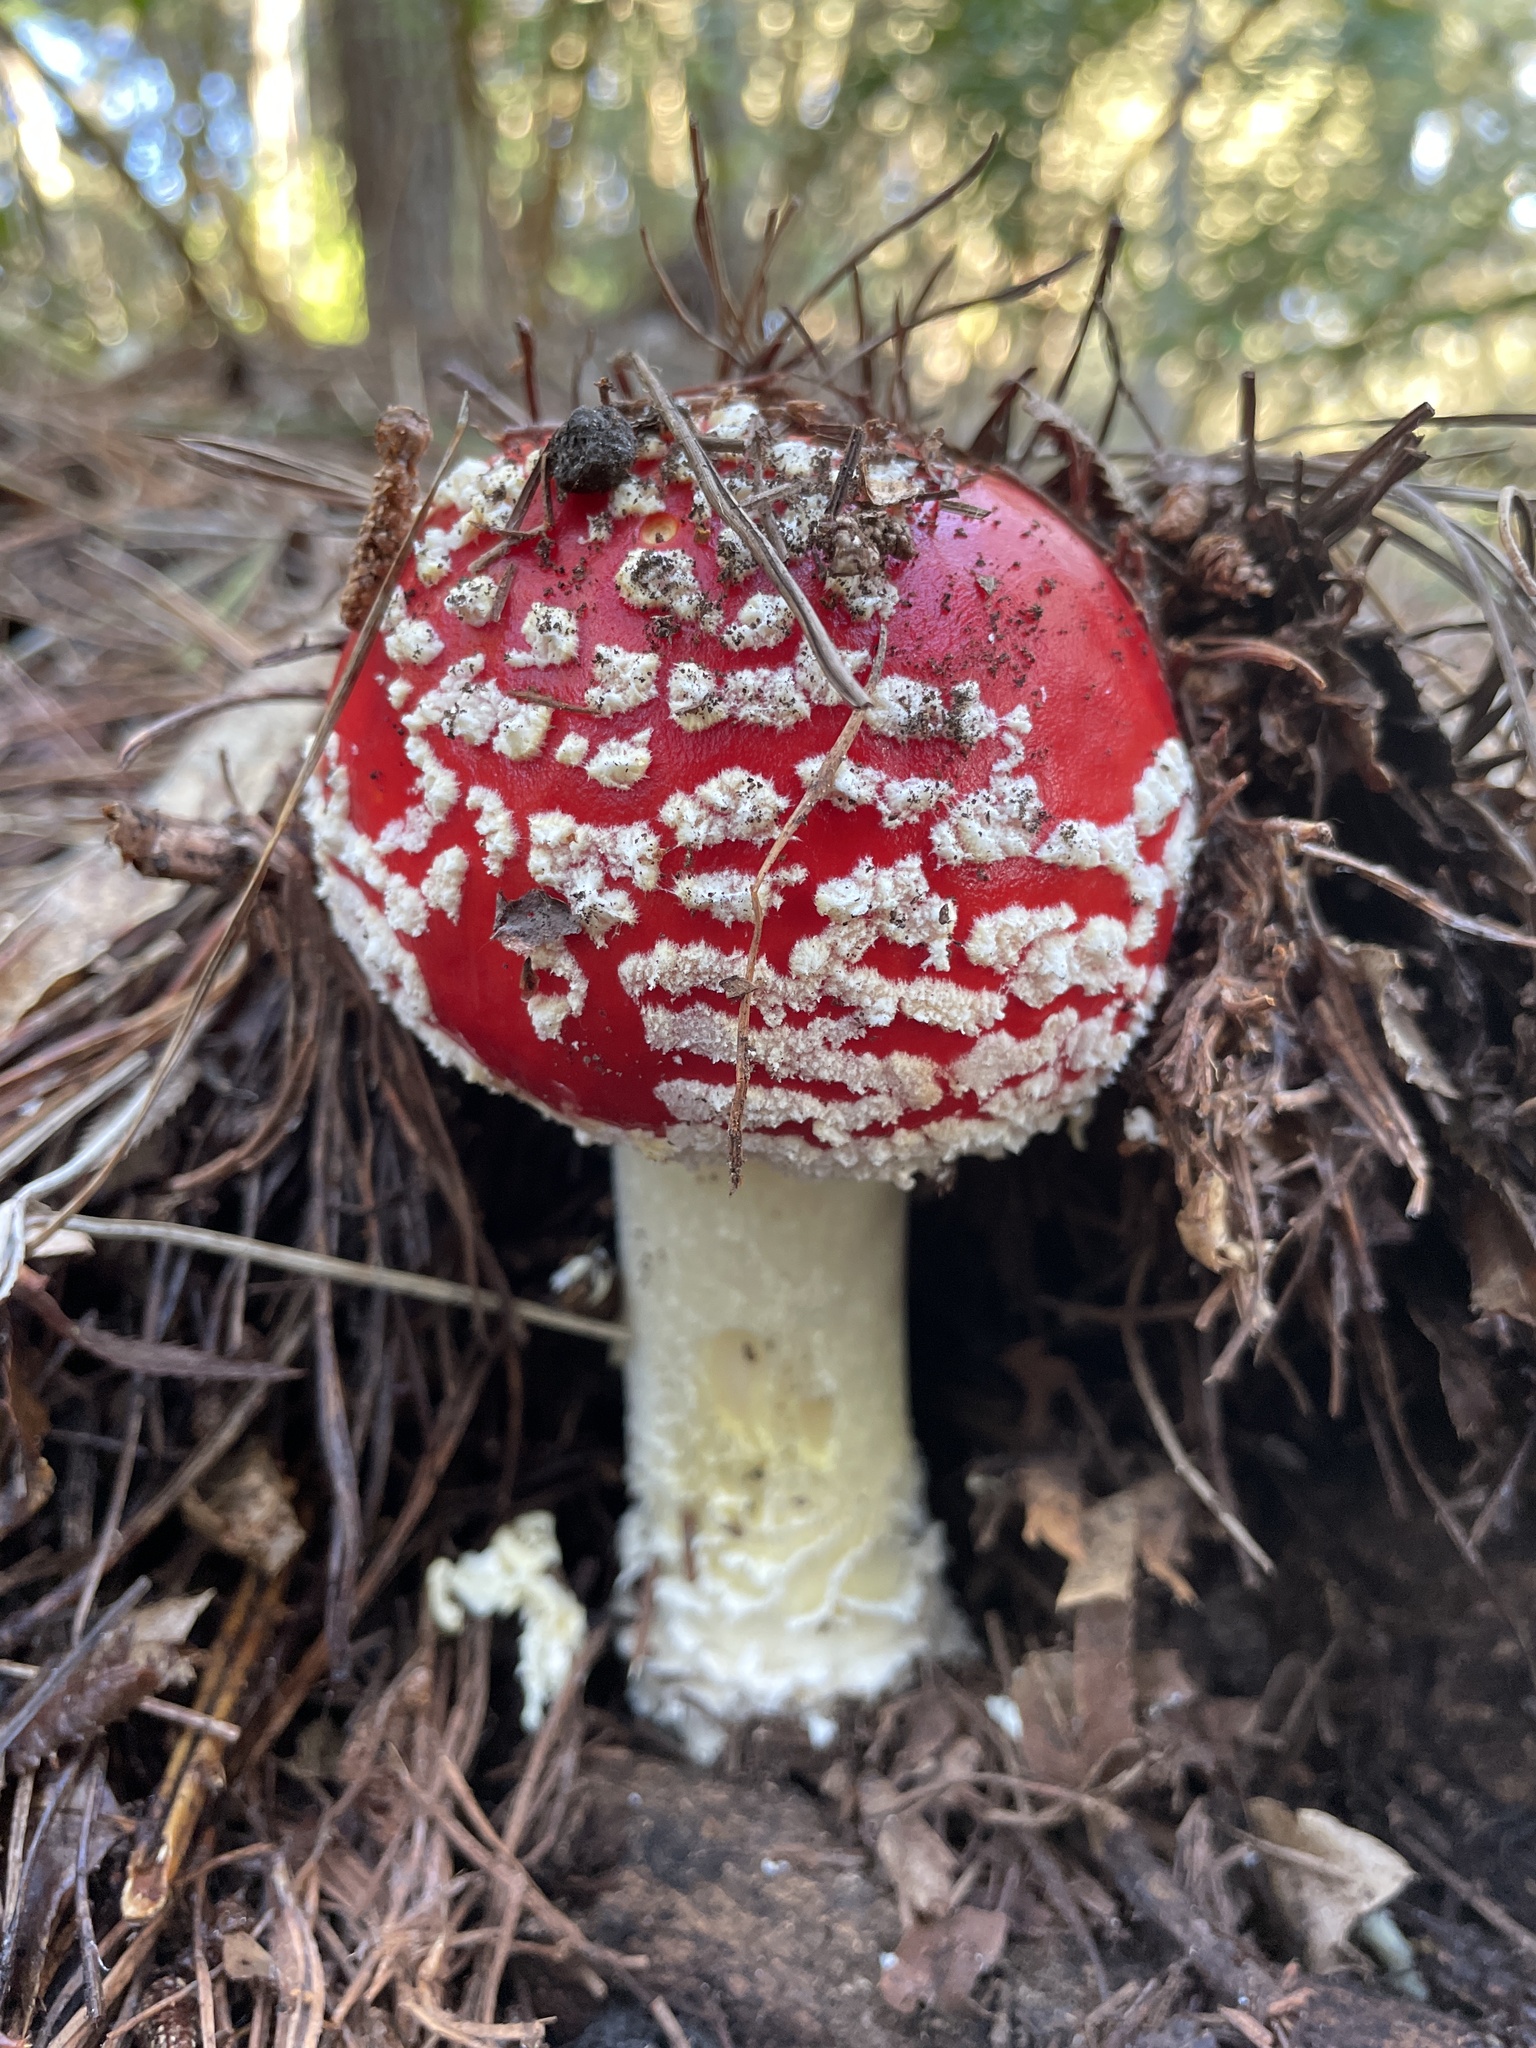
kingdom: Fungi
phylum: Basidiomycota
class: Agaricomycetes
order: Agaricales
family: Amanitaceae
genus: Amanita
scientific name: Amanita muscaria
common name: Fly agaric
